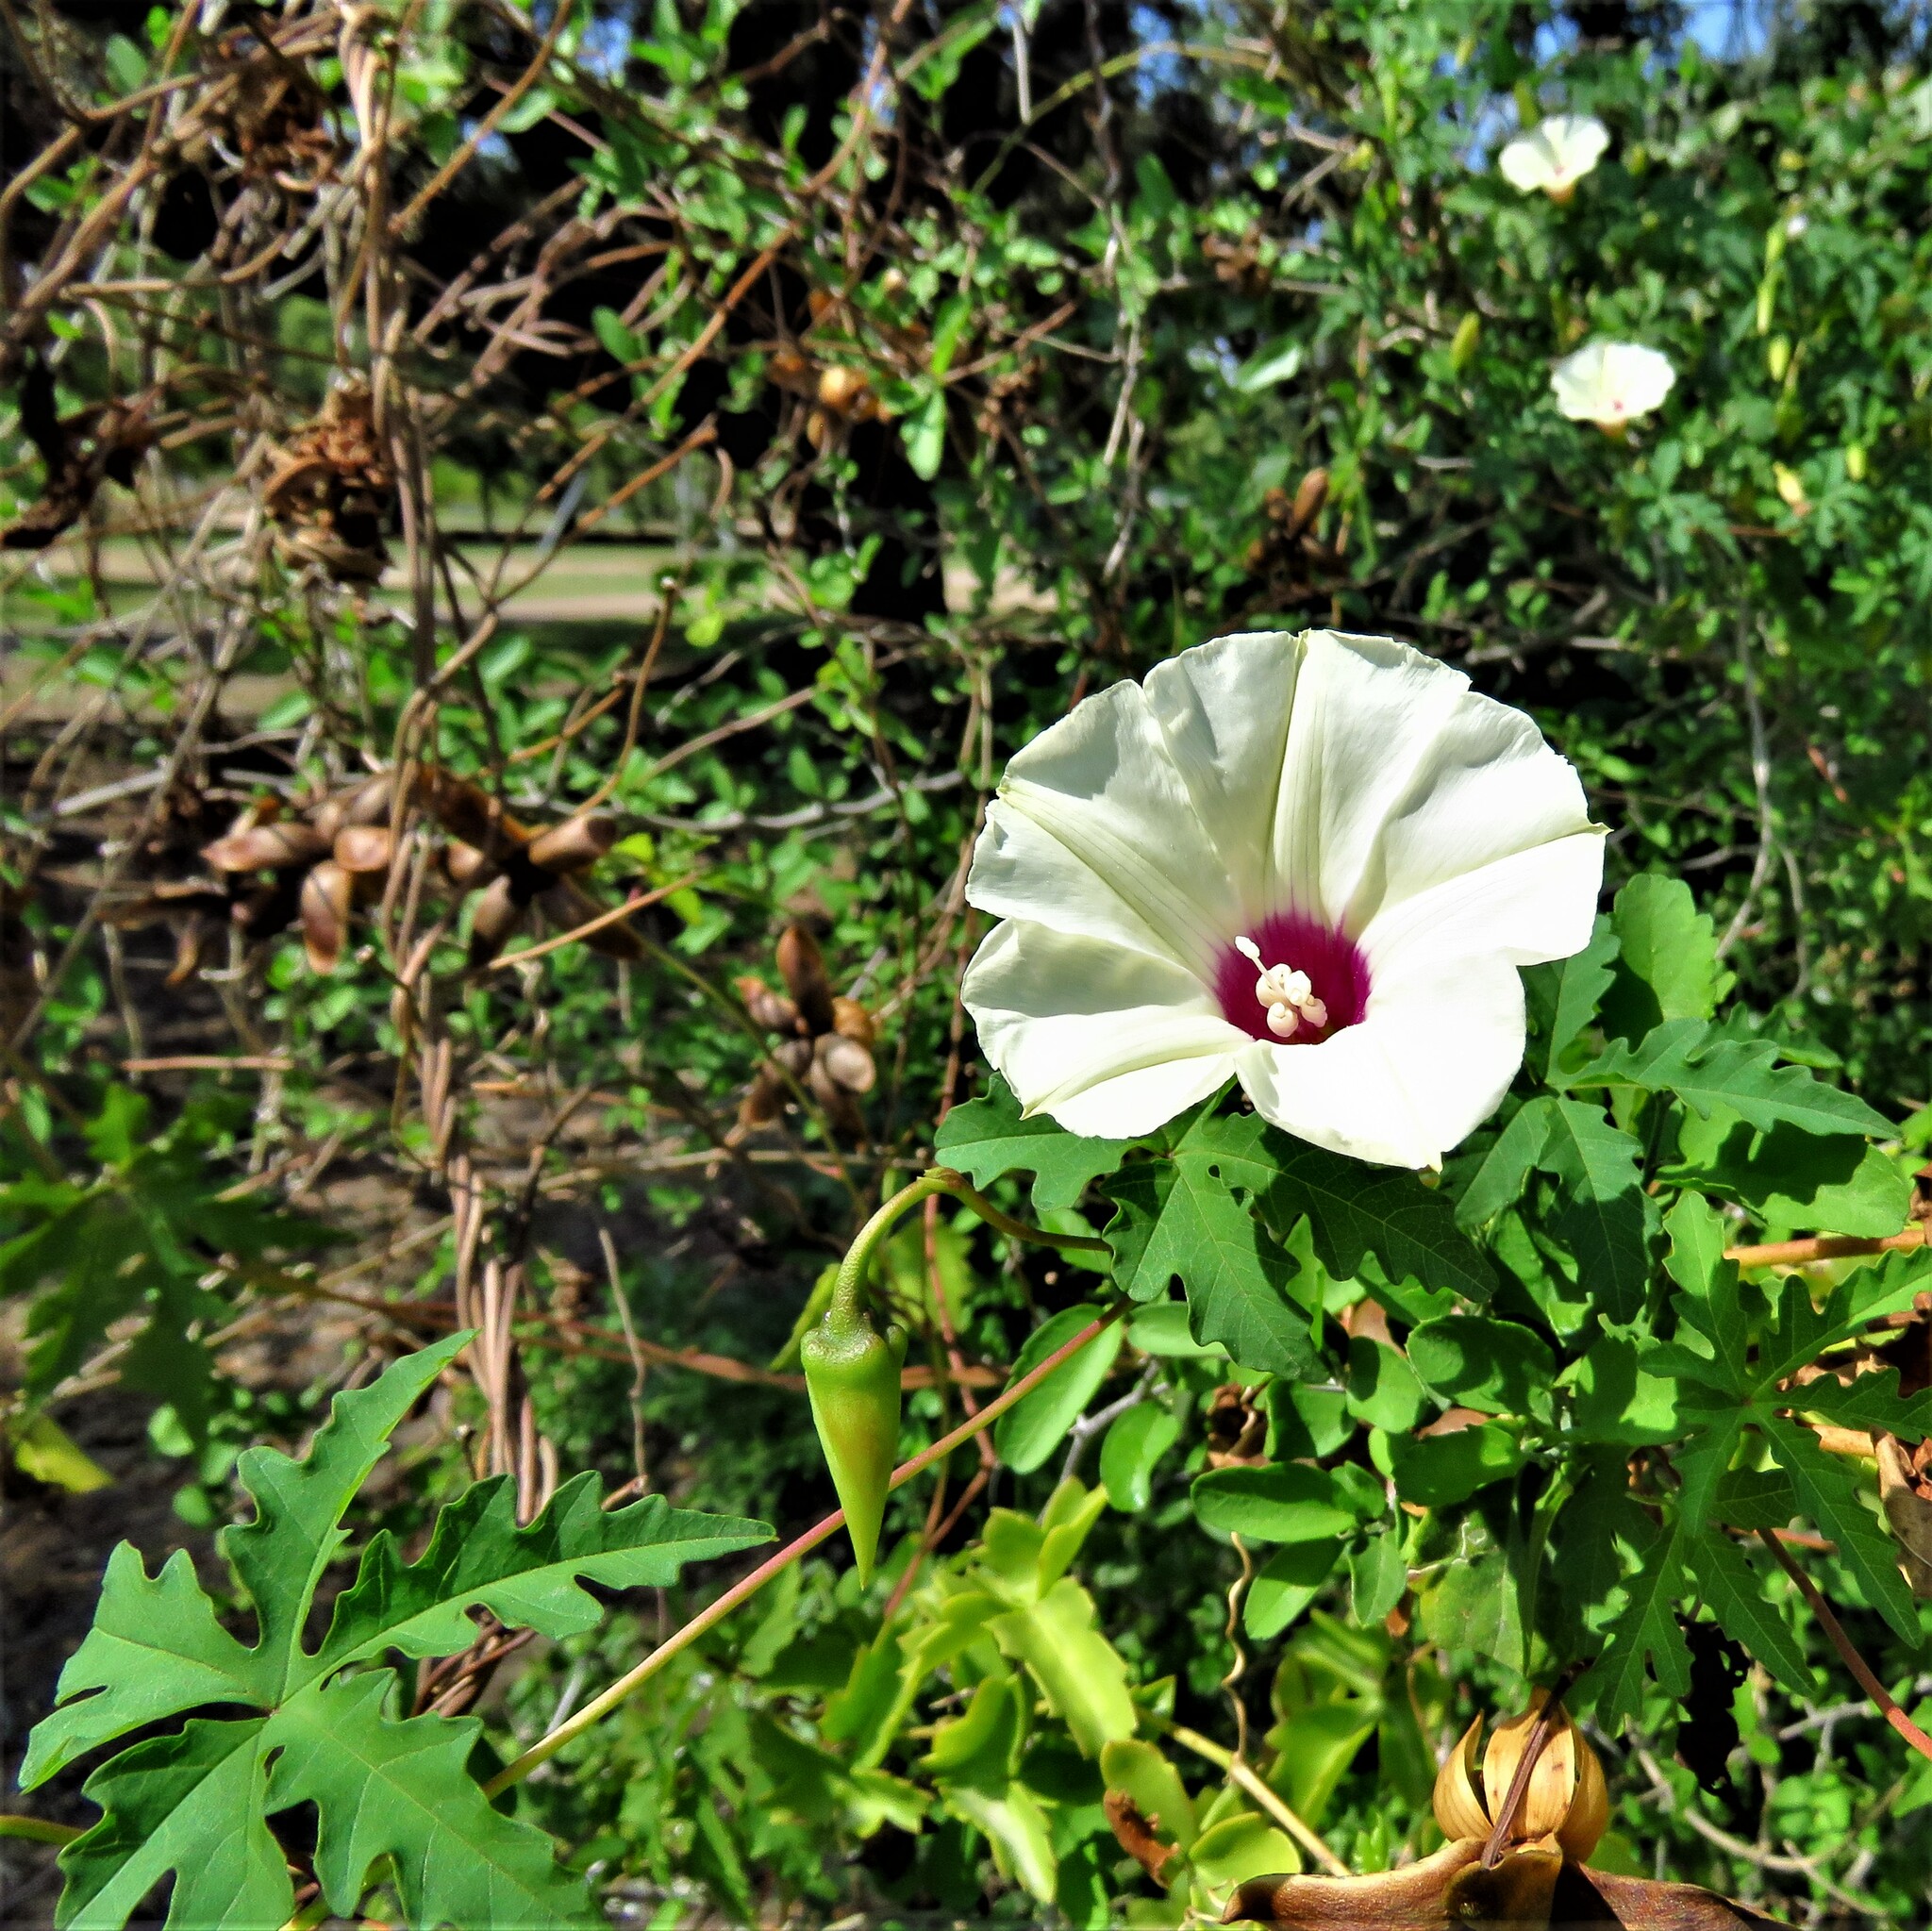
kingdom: Plantae
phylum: Tracheophyta
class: Magnoliopsida
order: Solanales
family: Convolvulaceae
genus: Distimake
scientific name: Distimake dissectus
